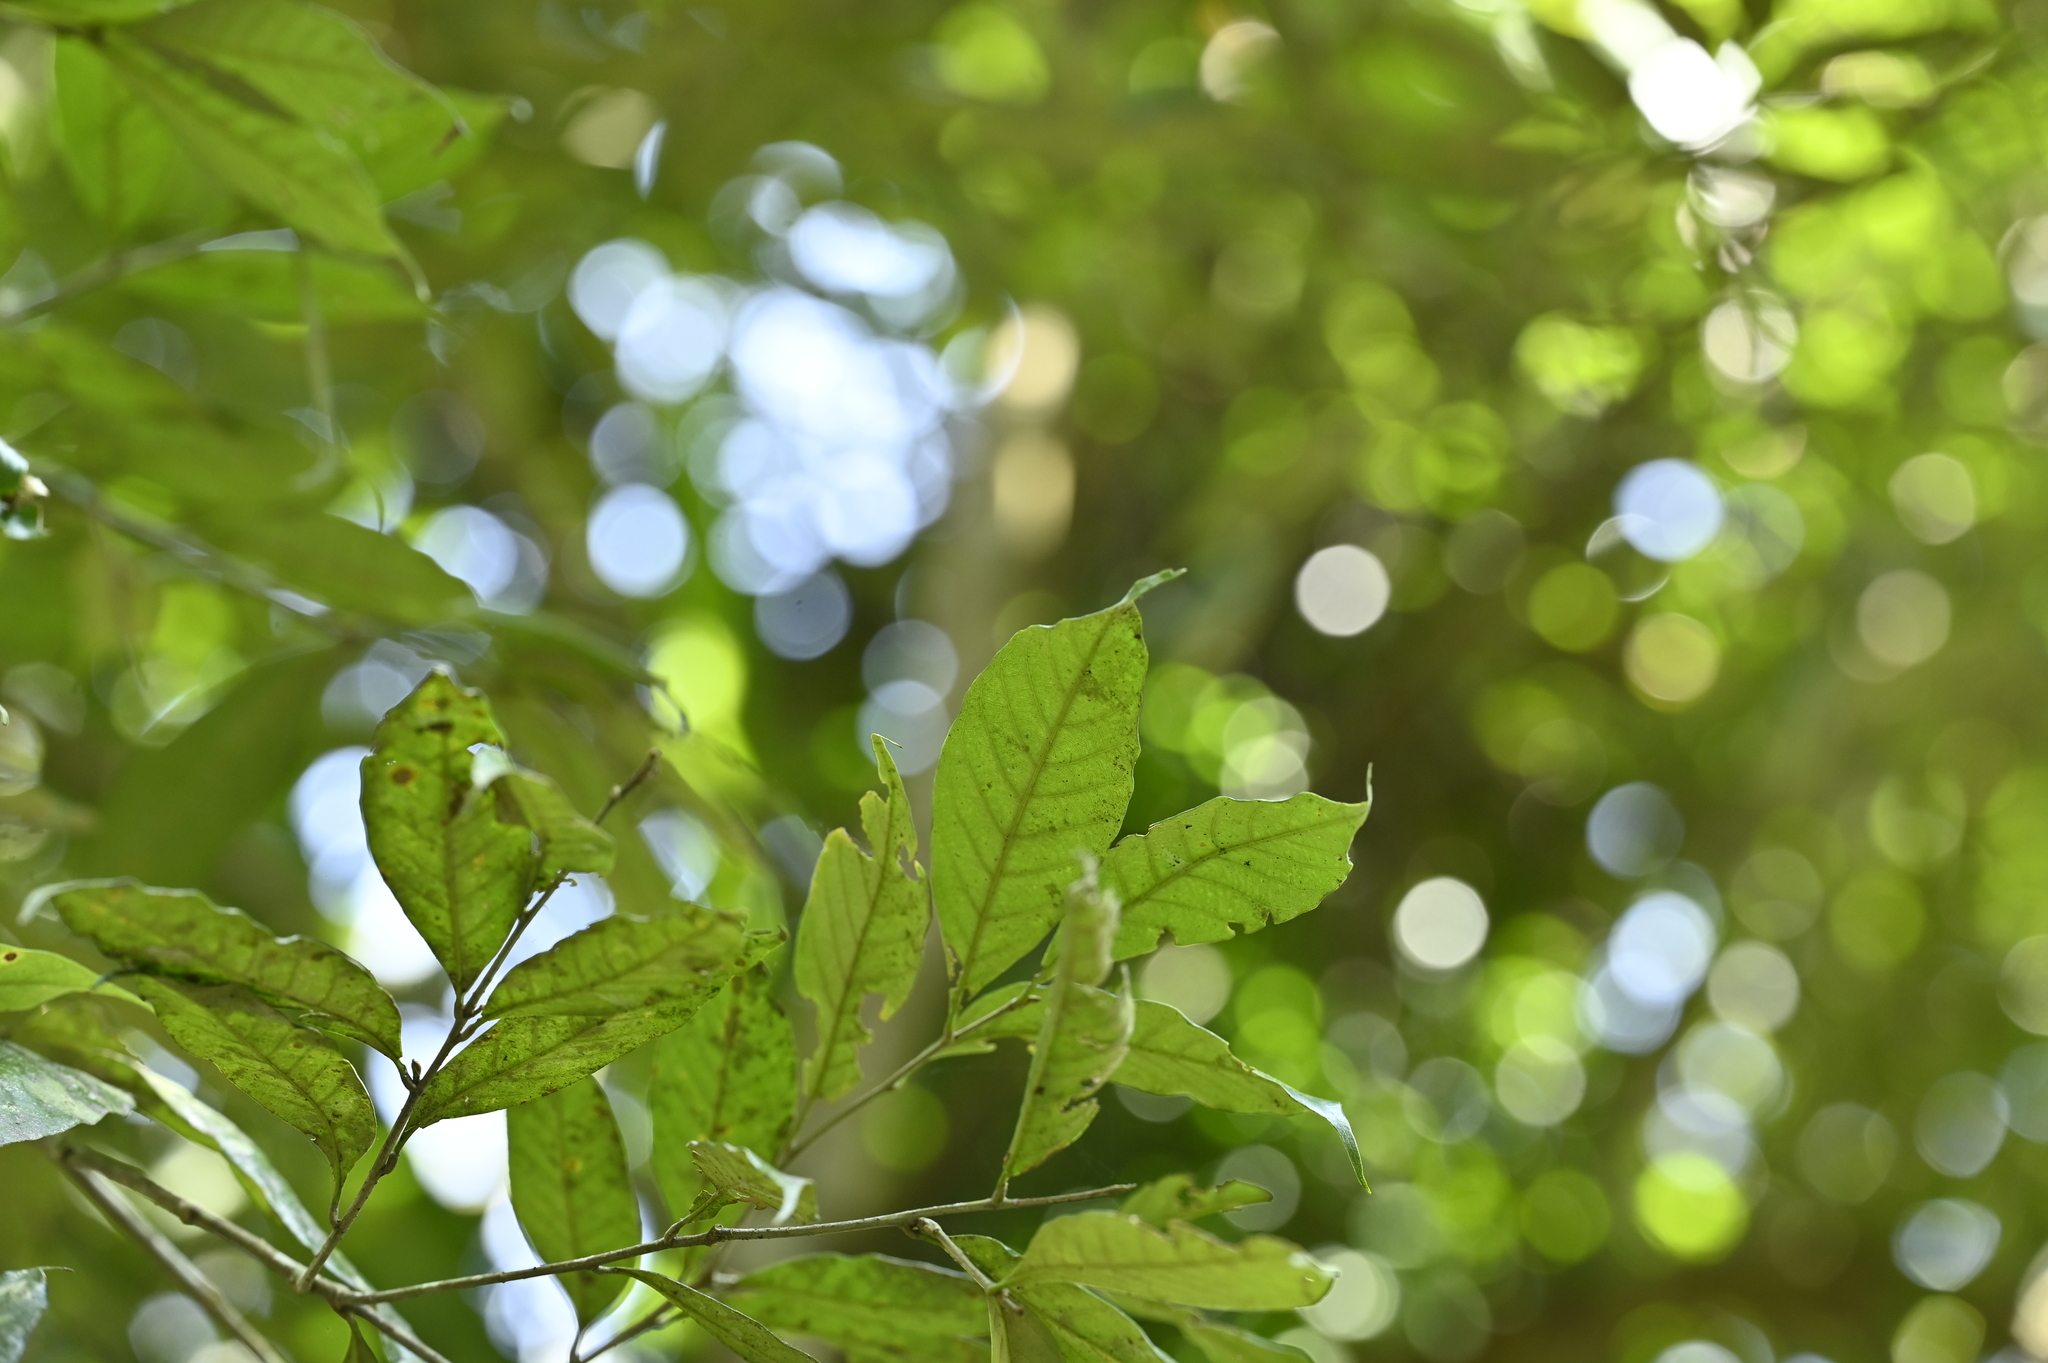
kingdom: Plantae
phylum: Tracheophyta
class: Magnoliopsida
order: Fagales
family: Fagaceae
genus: Castanopsis
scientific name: Castanopsis faberi
